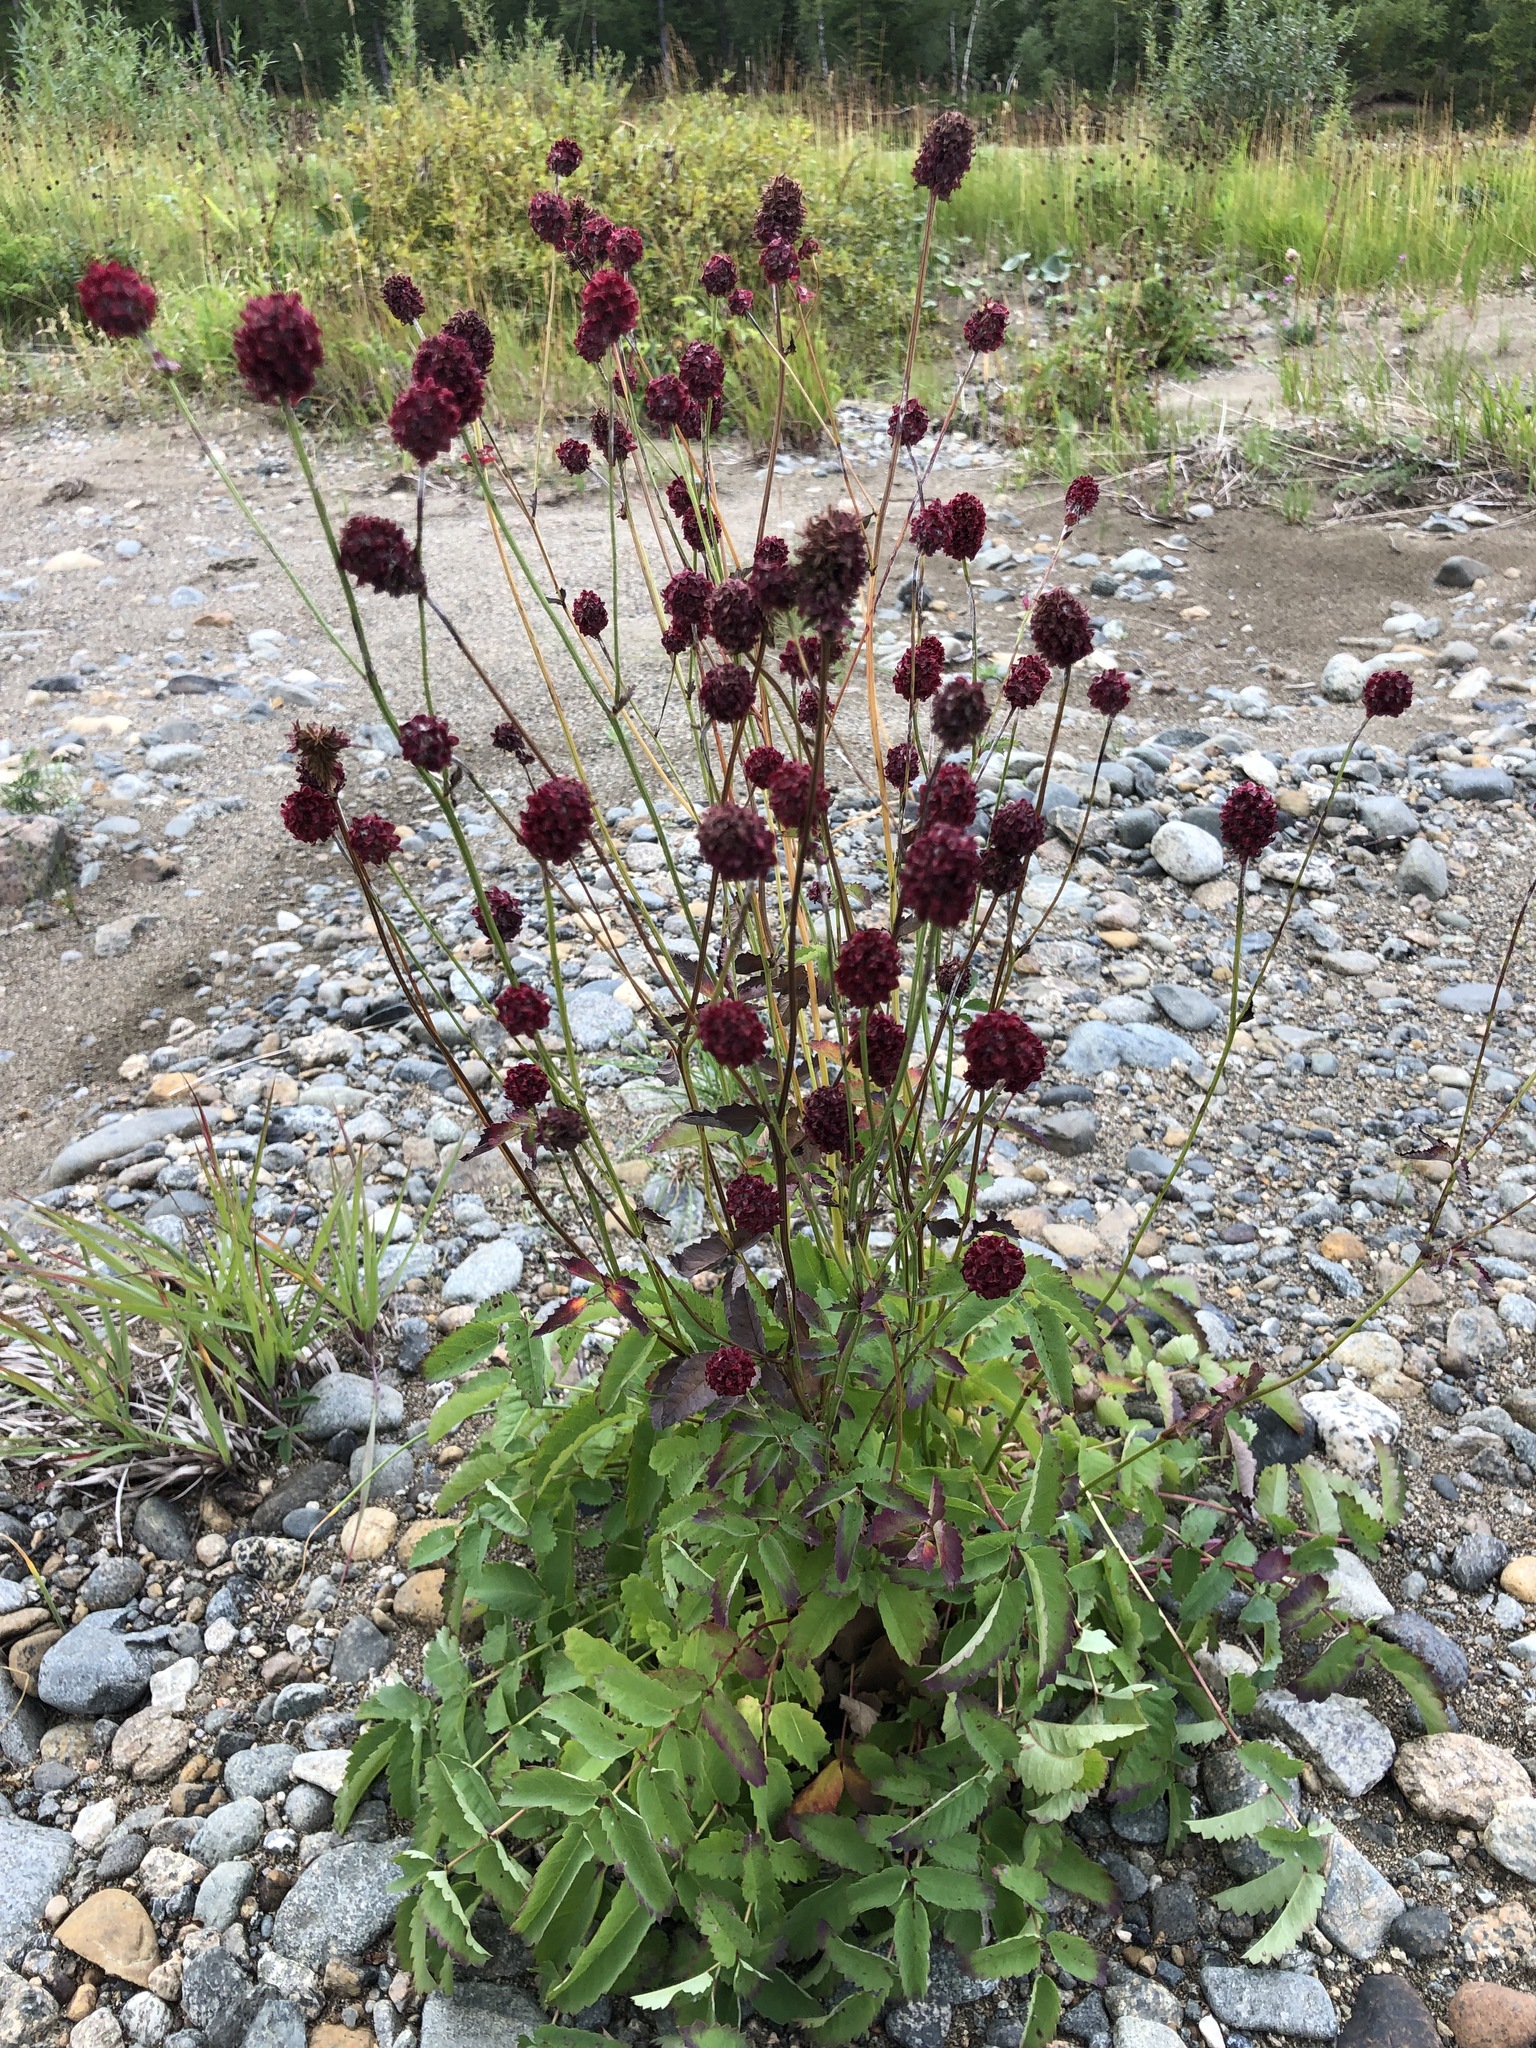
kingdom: Plantae
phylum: Tracheophyta
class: Magnoliopsida
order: Rosales
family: Rosaceae
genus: Sanguisorba
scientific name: Sanguisorba officinalis
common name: Great burnet
